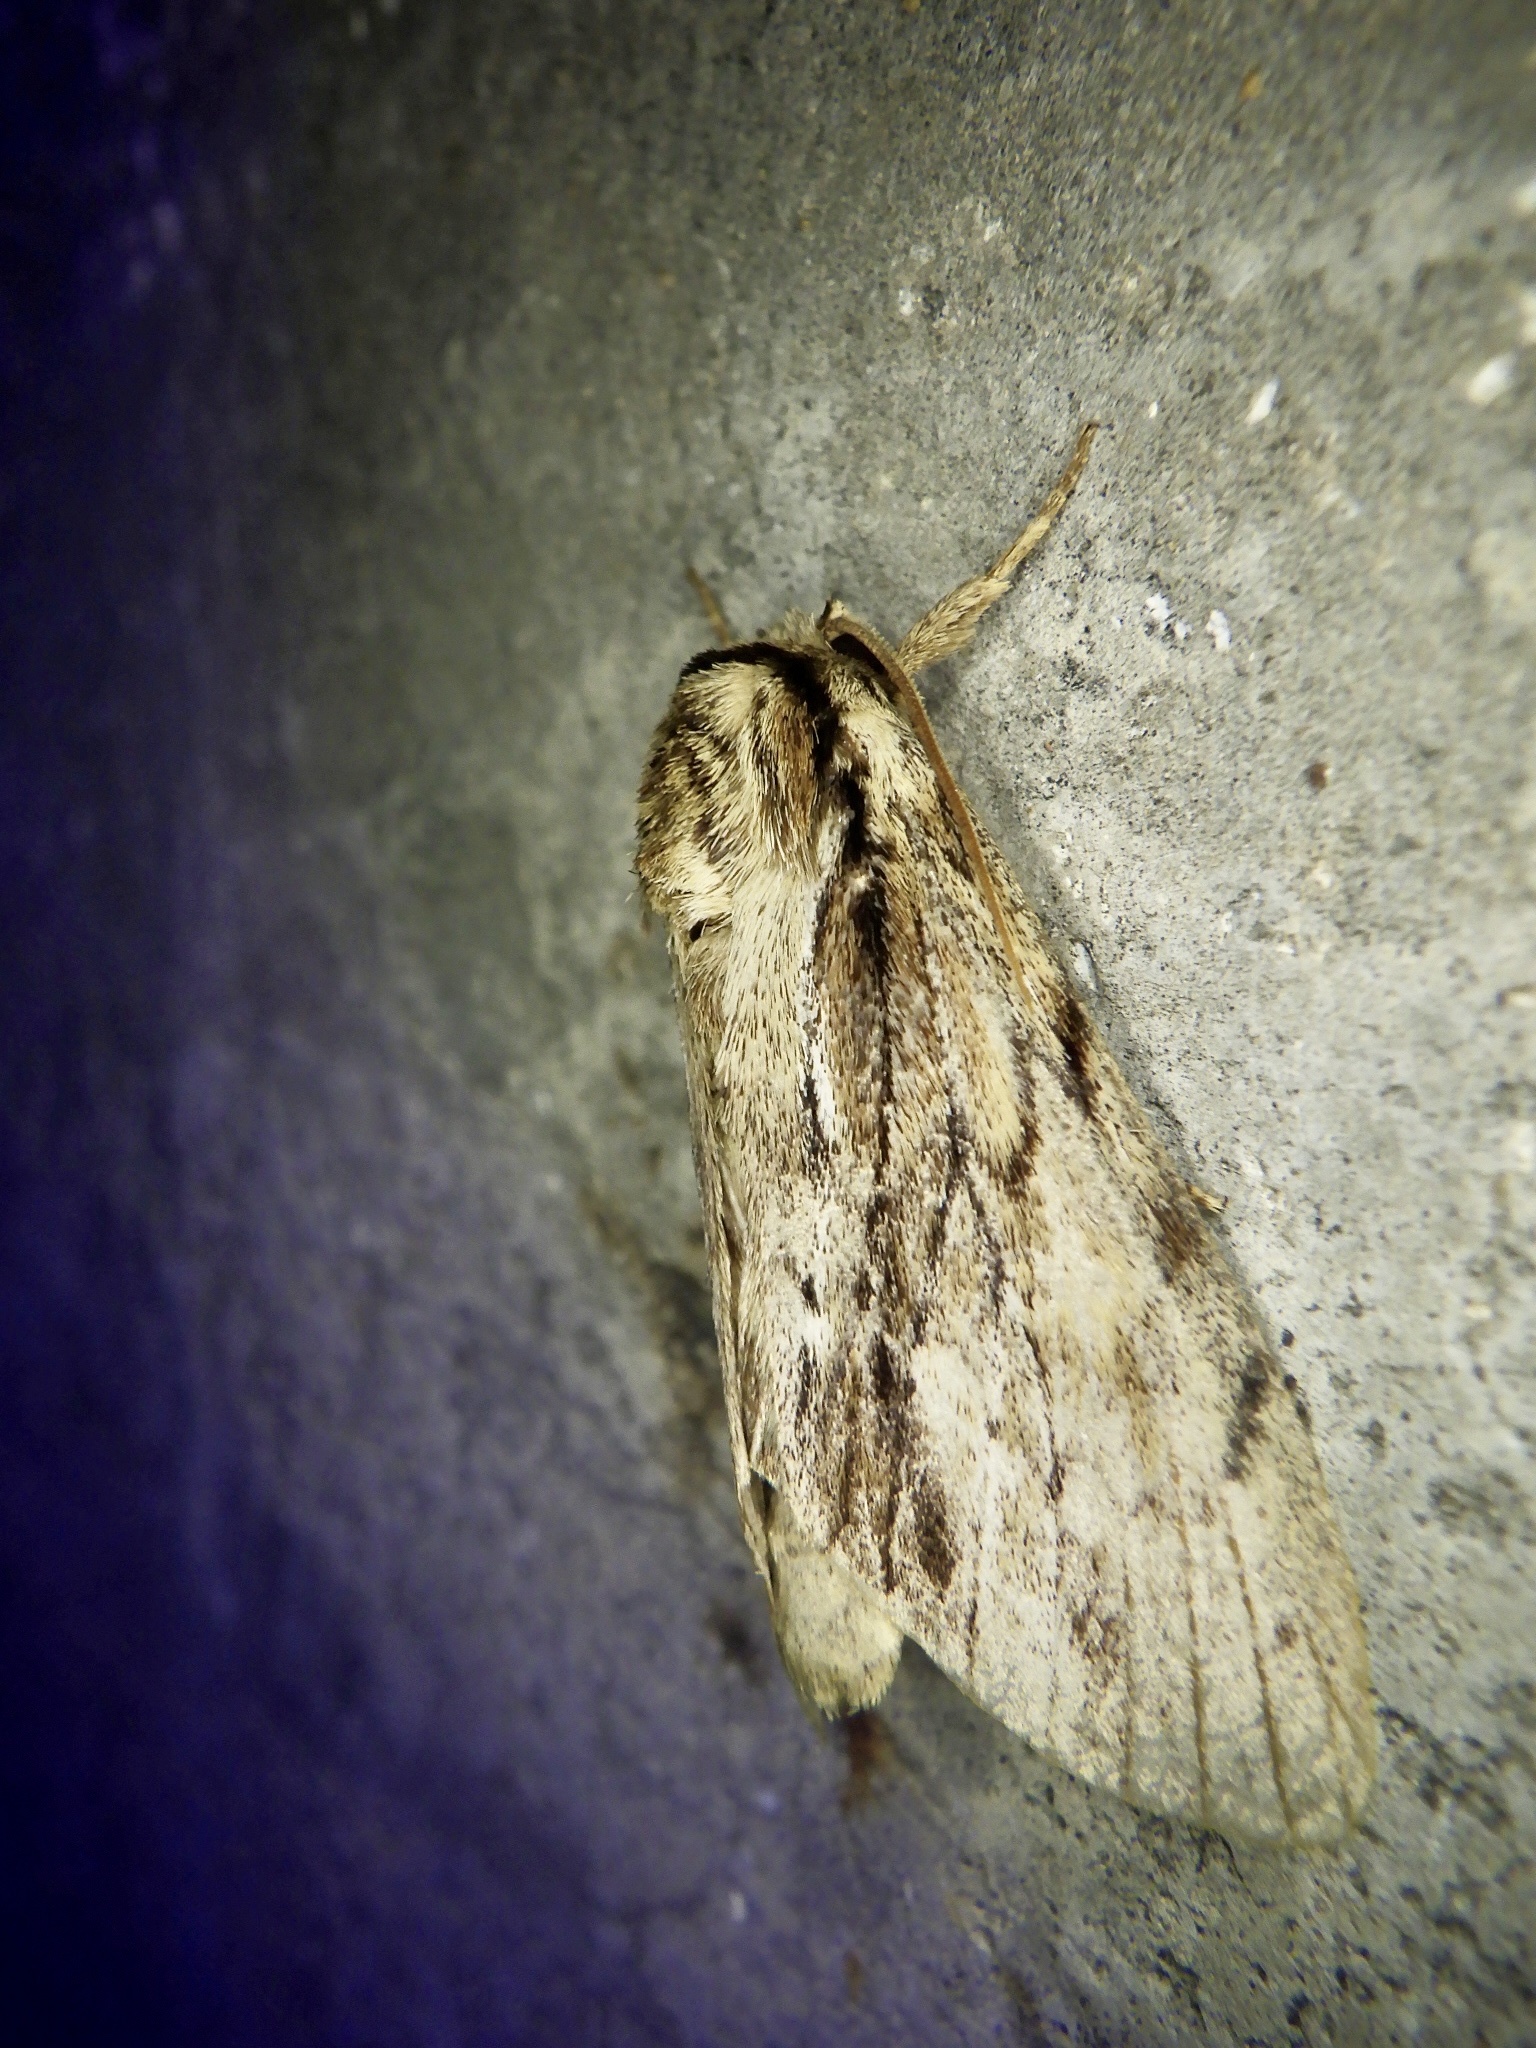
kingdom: Animalia
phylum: Arthropoda
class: Insecta
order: Lepidoptera
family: Notodontidae
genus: Shaka
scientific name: Shaka atrovittatus
